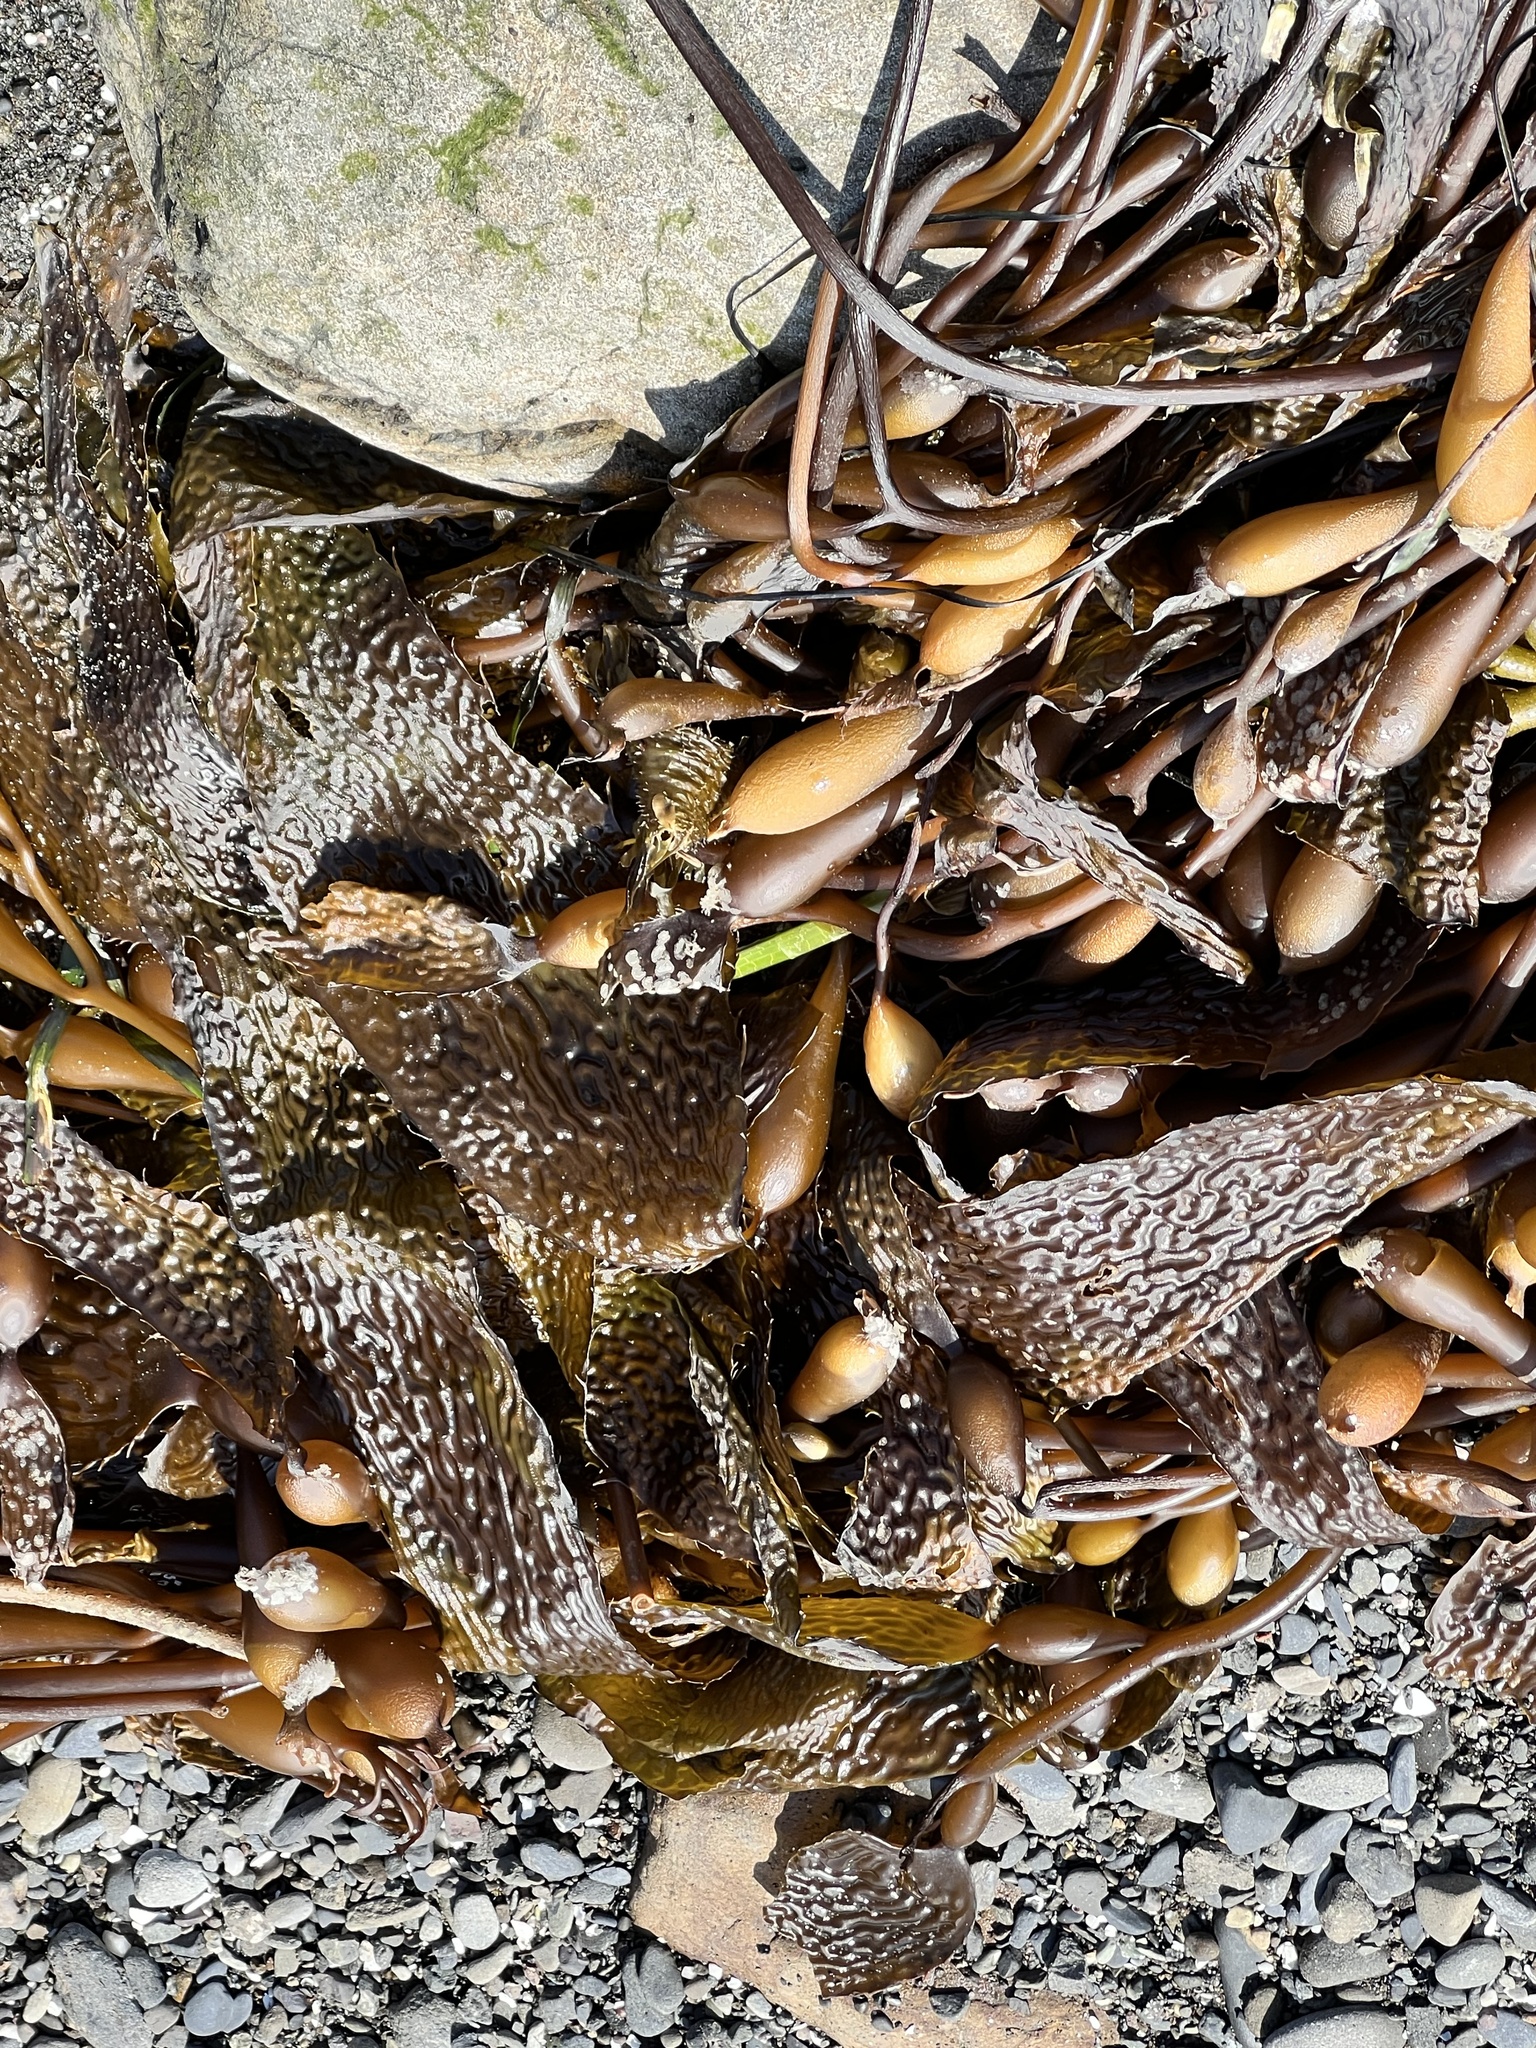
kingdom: Chromista
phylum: Ochrophyta
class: Phaeophyceae
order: Laminariales
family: Laminariaceae
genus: Macrocystis
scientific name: Macrocystis pyrifera
